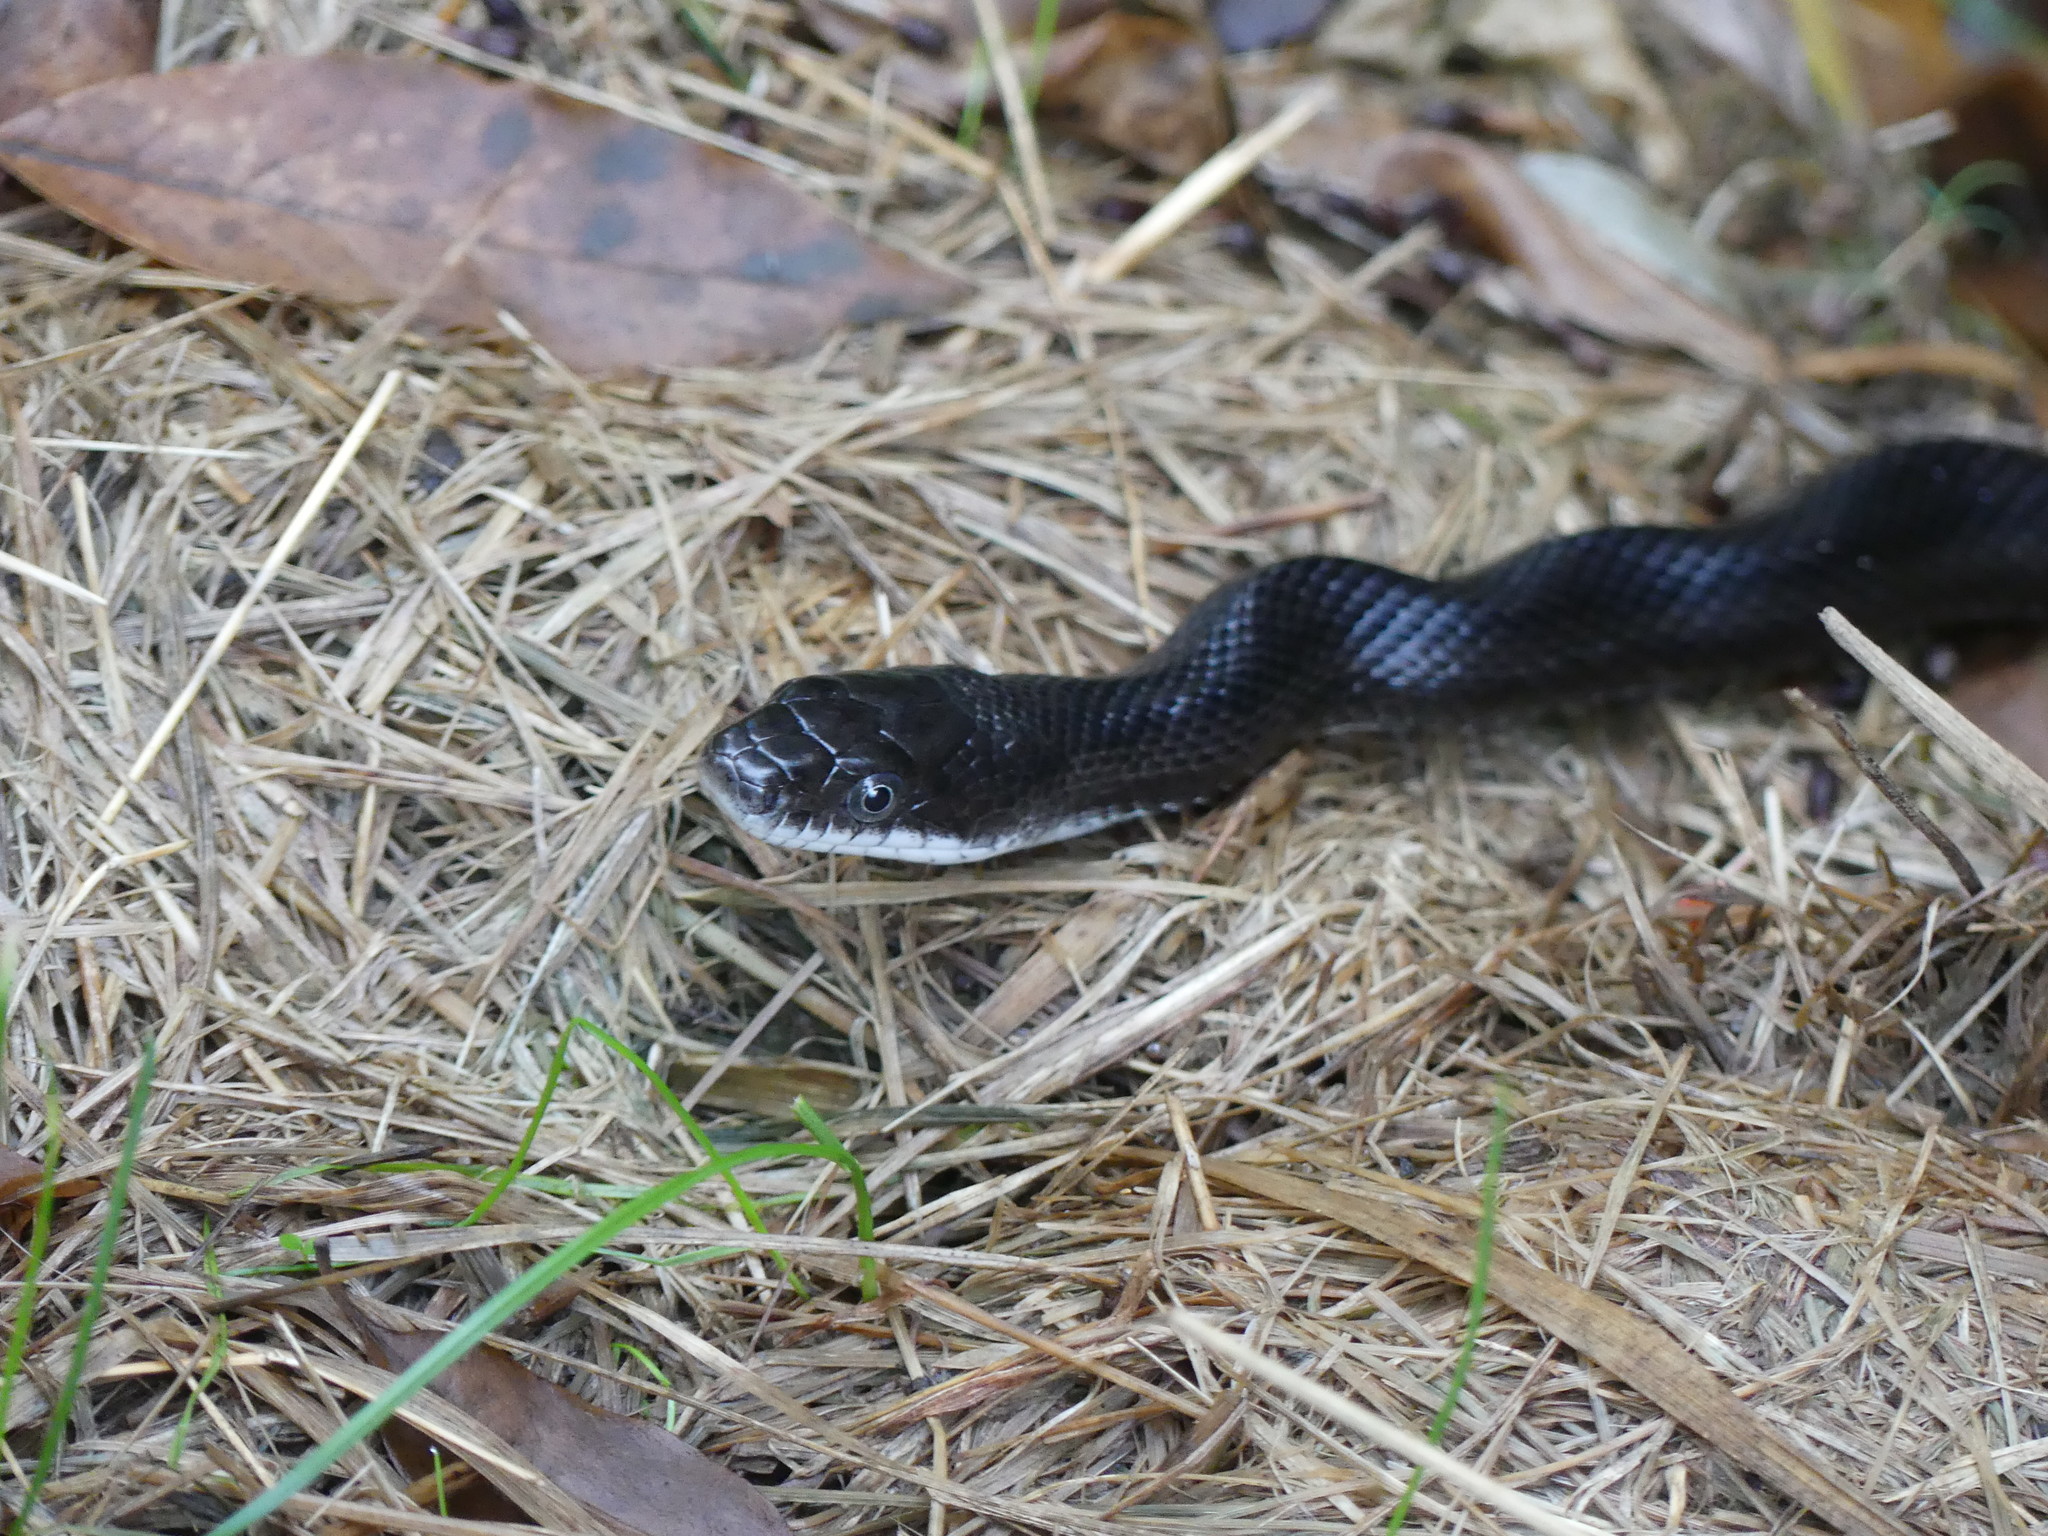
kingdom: Animalia
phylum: Chordata
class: Squamata
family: Colubridae
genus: Pantherophis
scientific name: Pantherophis alleghaniensis
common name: Eastern rat snake
